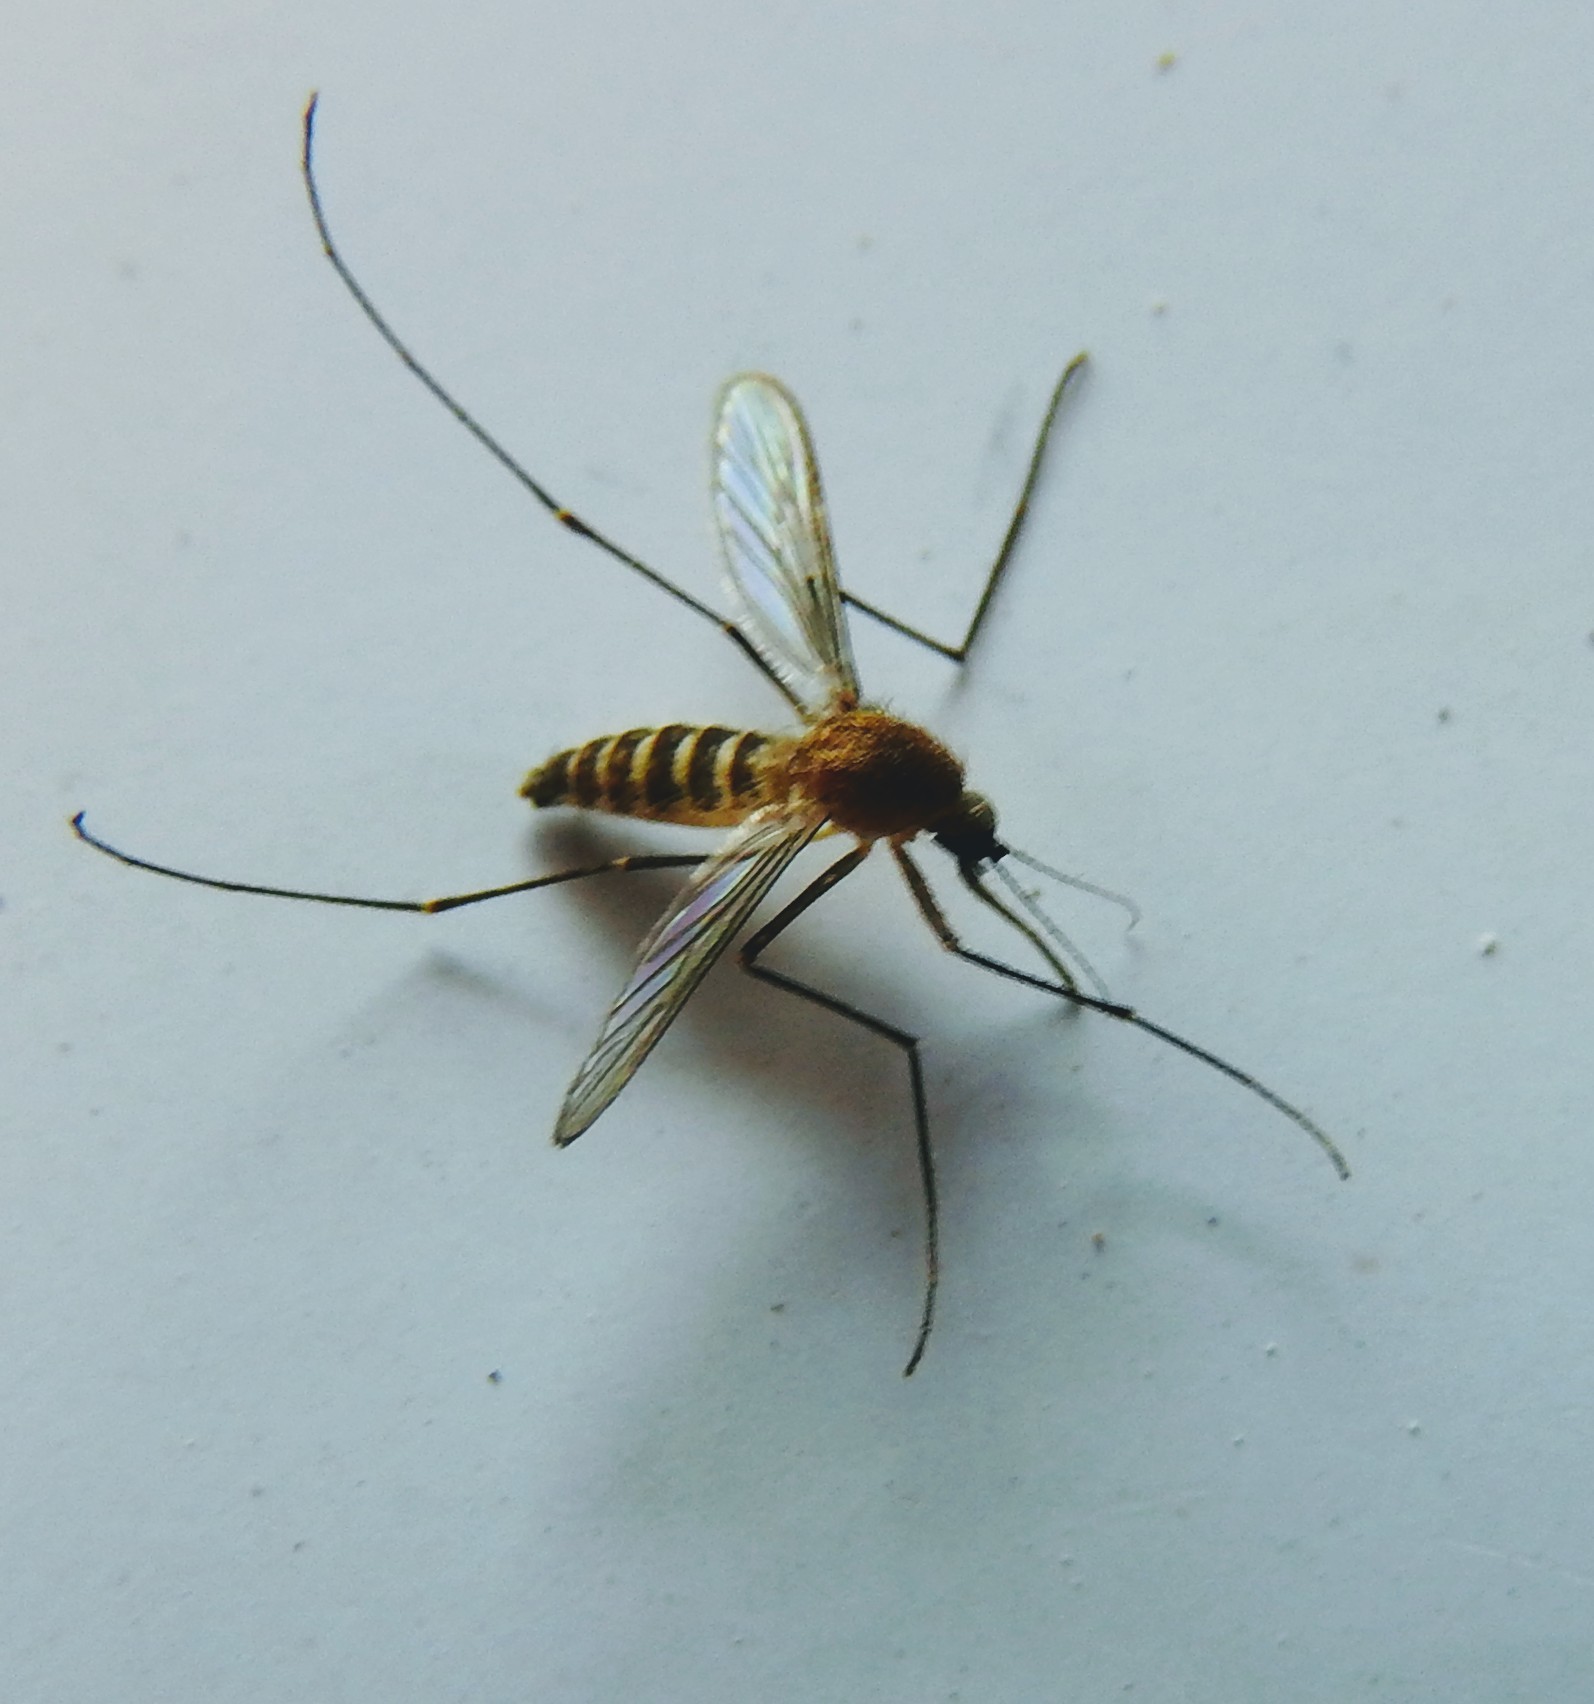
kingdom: Animalia
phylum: Arthropoda
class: Insecta
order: Diptera
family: Culicidae
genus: Culex
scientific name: Culex quinquefasciatus
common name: Southern house mosquito
